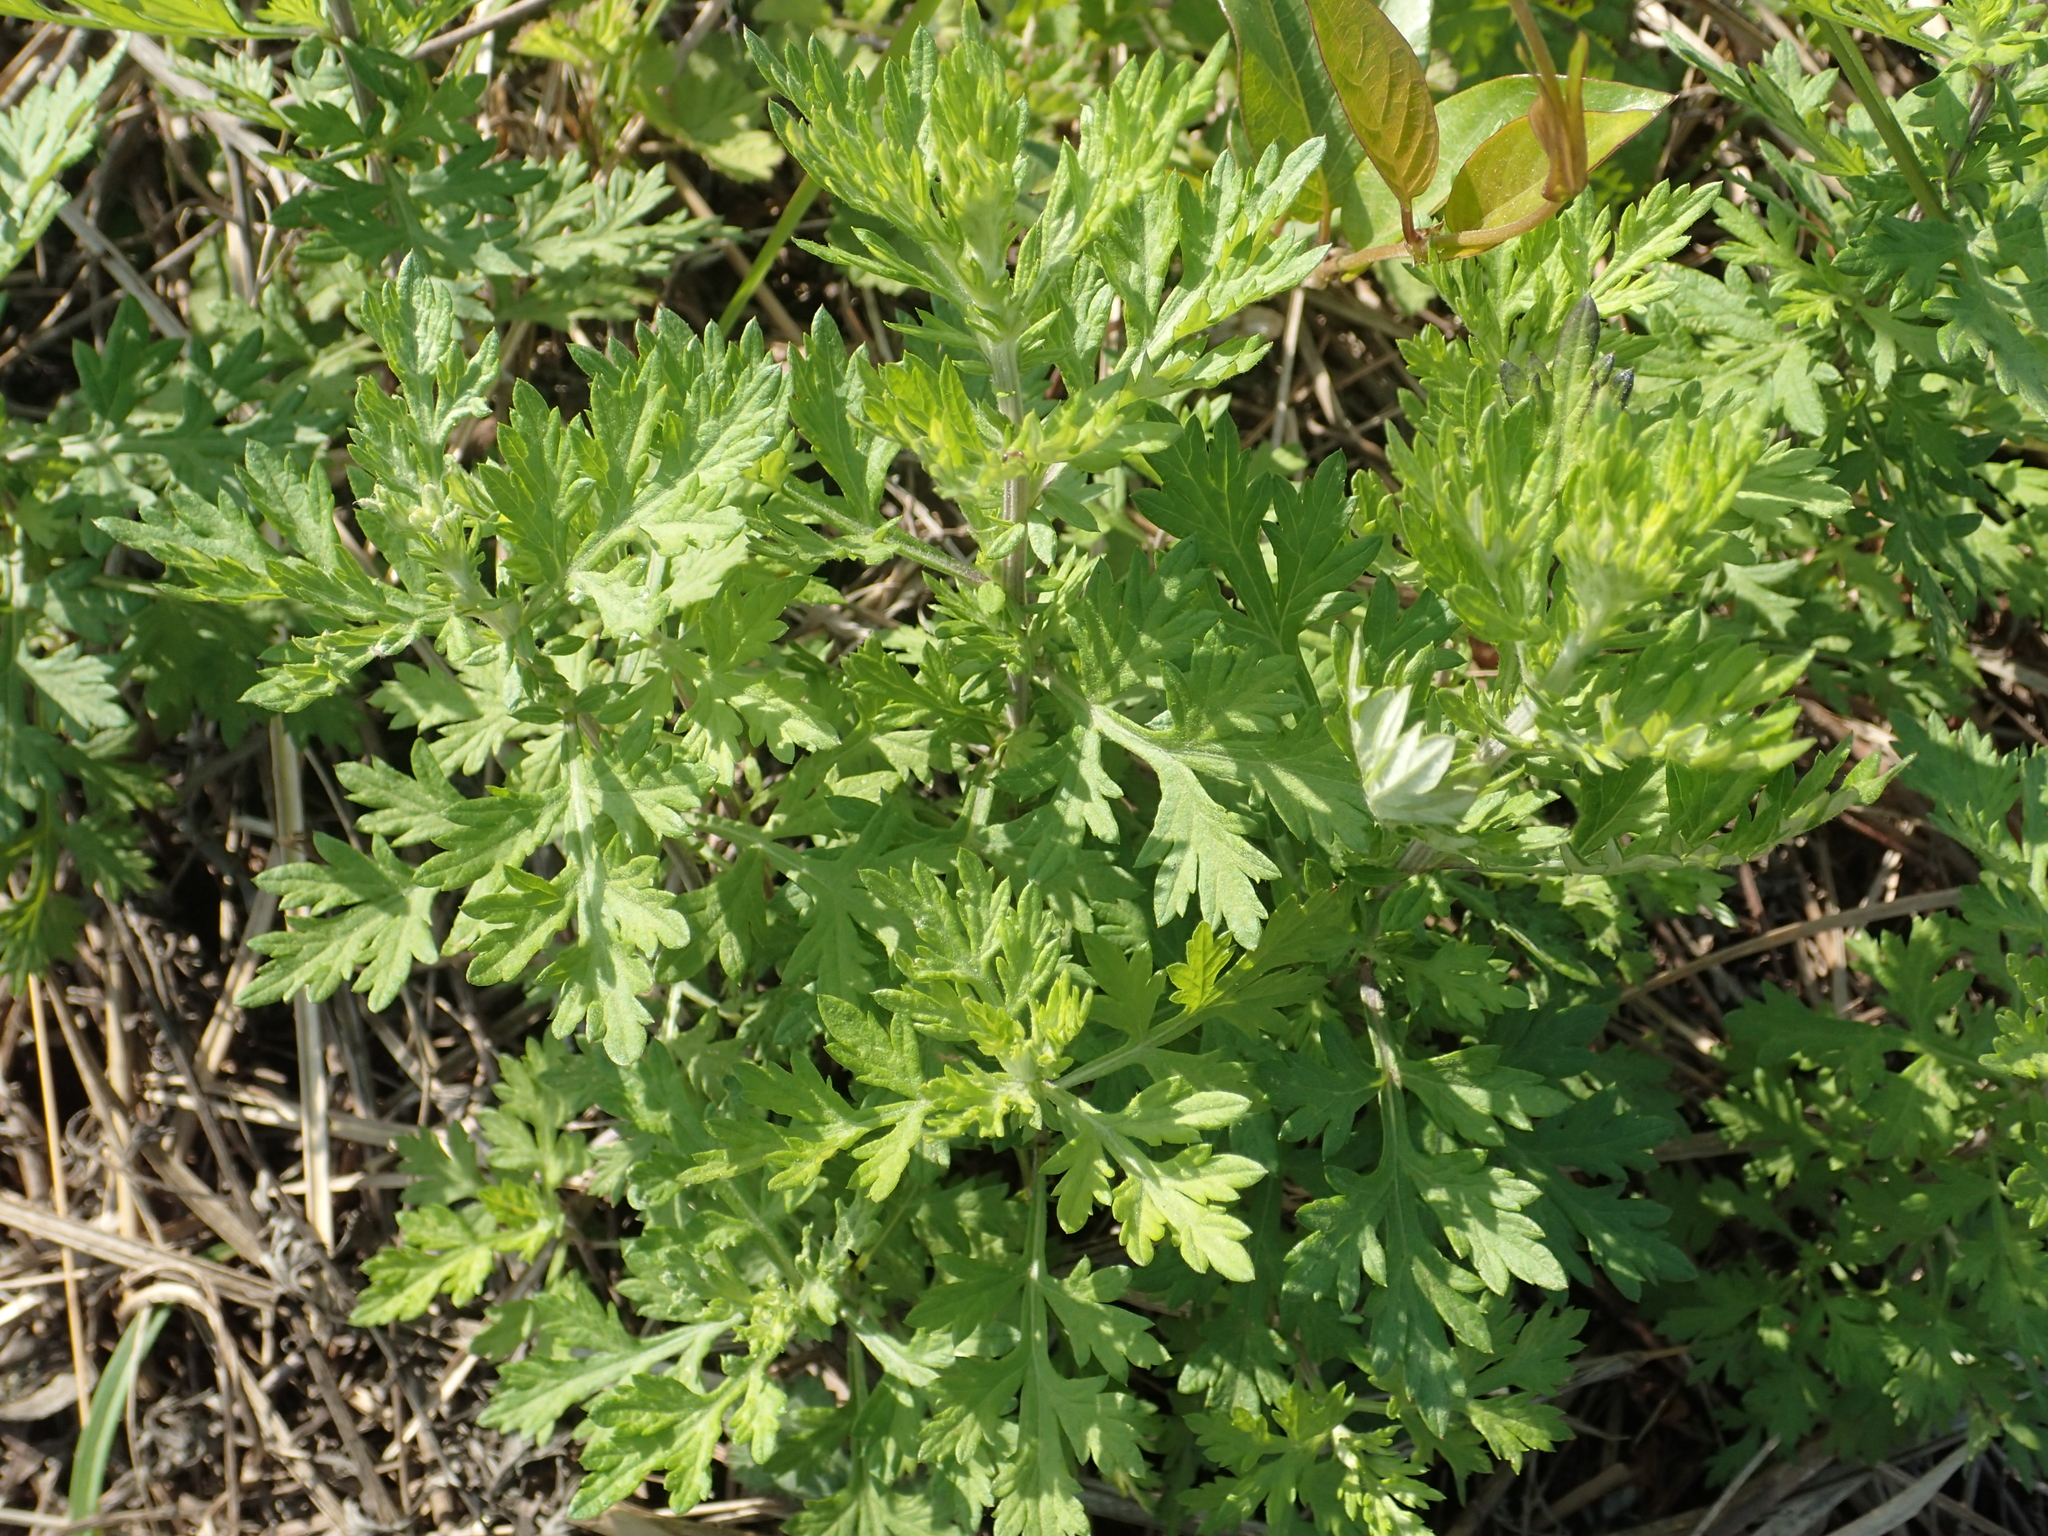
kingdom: Plantae
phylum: Tracheophyta
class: Magnoliopsida
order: Asterales
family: Asteraceae
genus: Artemisia
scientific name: Artemisia indica
